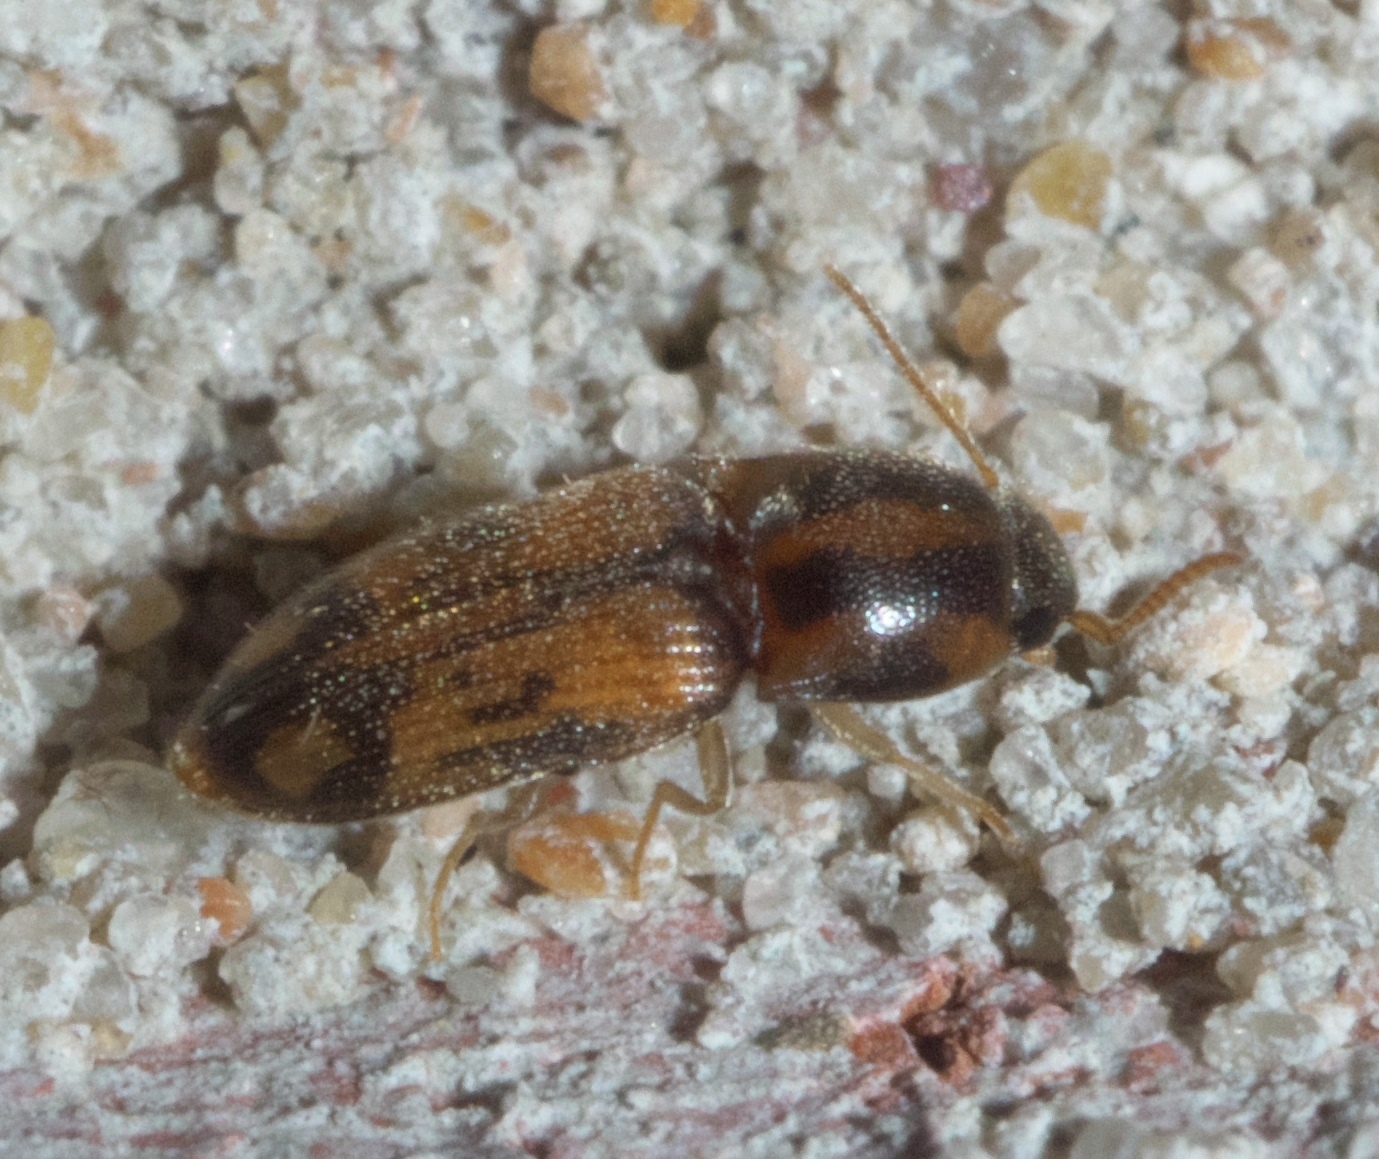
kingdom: Animalia
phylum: Arthropoda
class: Insecta
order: Coleoptera
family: Elateridae
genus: Monocrepidius
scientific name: Monocrepidius bellus
